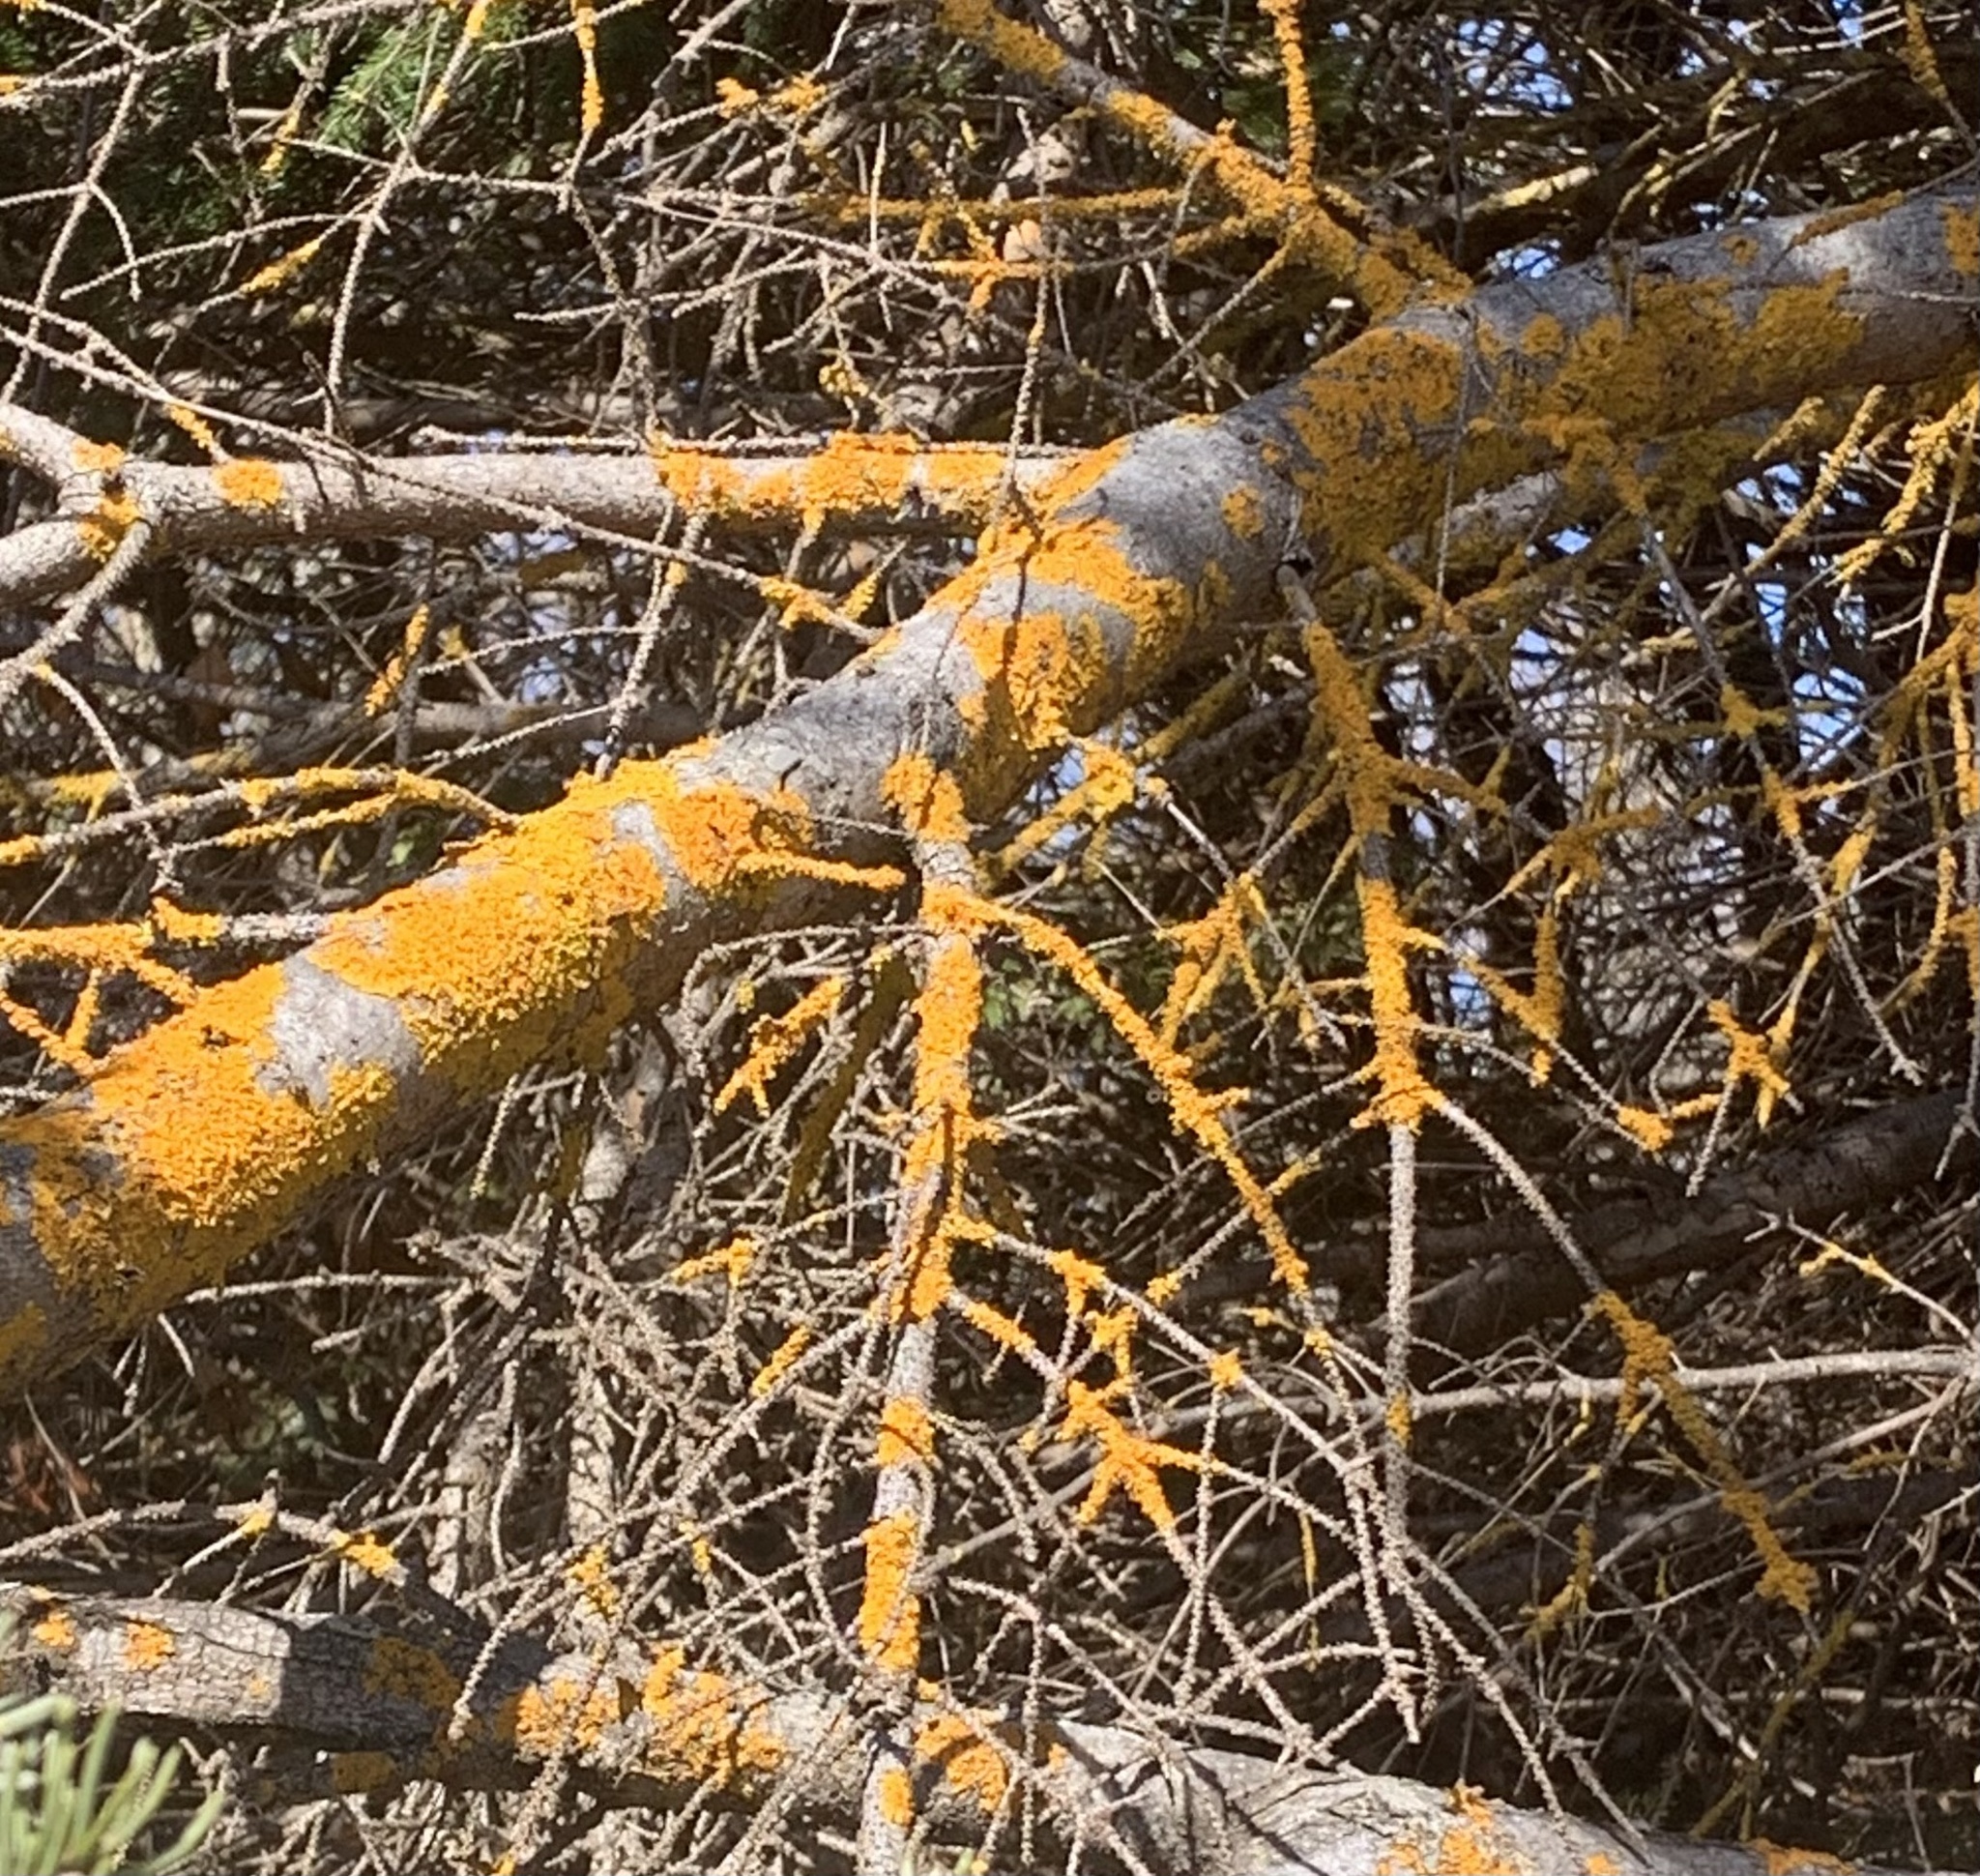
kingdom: Fungi
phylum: Ascomycota
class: Lecanoromycetes
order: Teloschistales
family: Teloschistaceae
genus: Xanthoria
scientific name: Xanthoria parietina
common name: Common orange lichen
